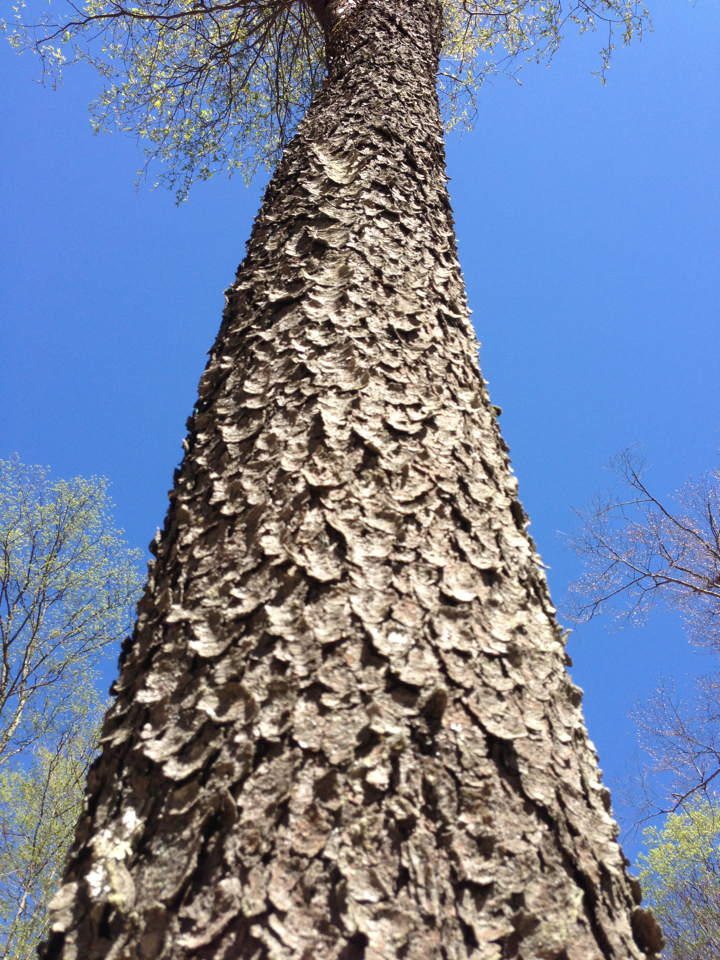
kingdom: Plantae
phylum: Tracheophyta
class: Magnoliopsida
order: Rosales
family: Rosaceae
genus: Prunus
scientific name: Prunus serotina
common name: Black cherry
